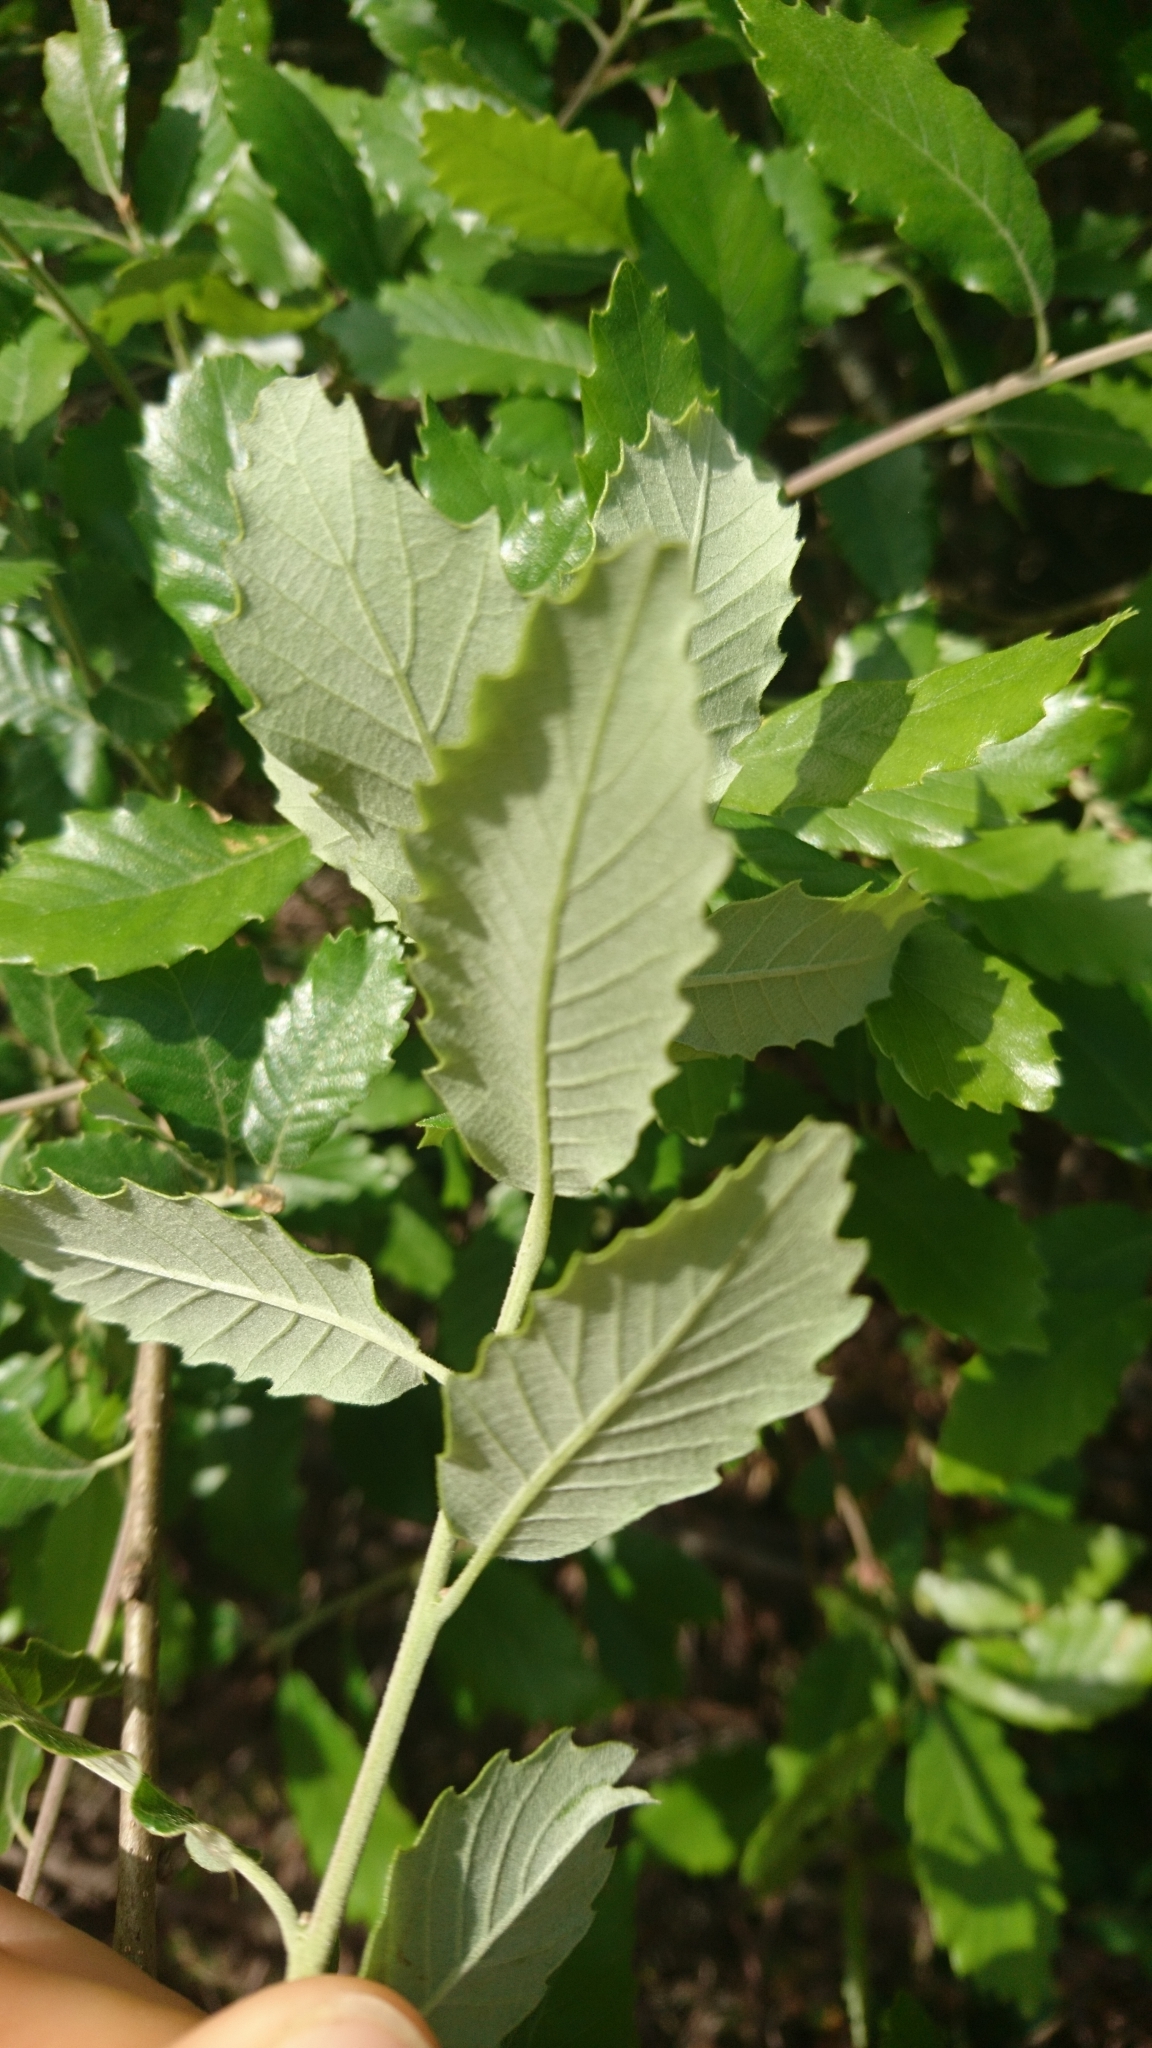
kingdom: Plantae
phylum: Tracheophyta
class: Magnoliopsida
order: Fagales
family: Fagaceae
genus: Quercus
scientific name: Quercus faginea
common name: Gall oak tree
